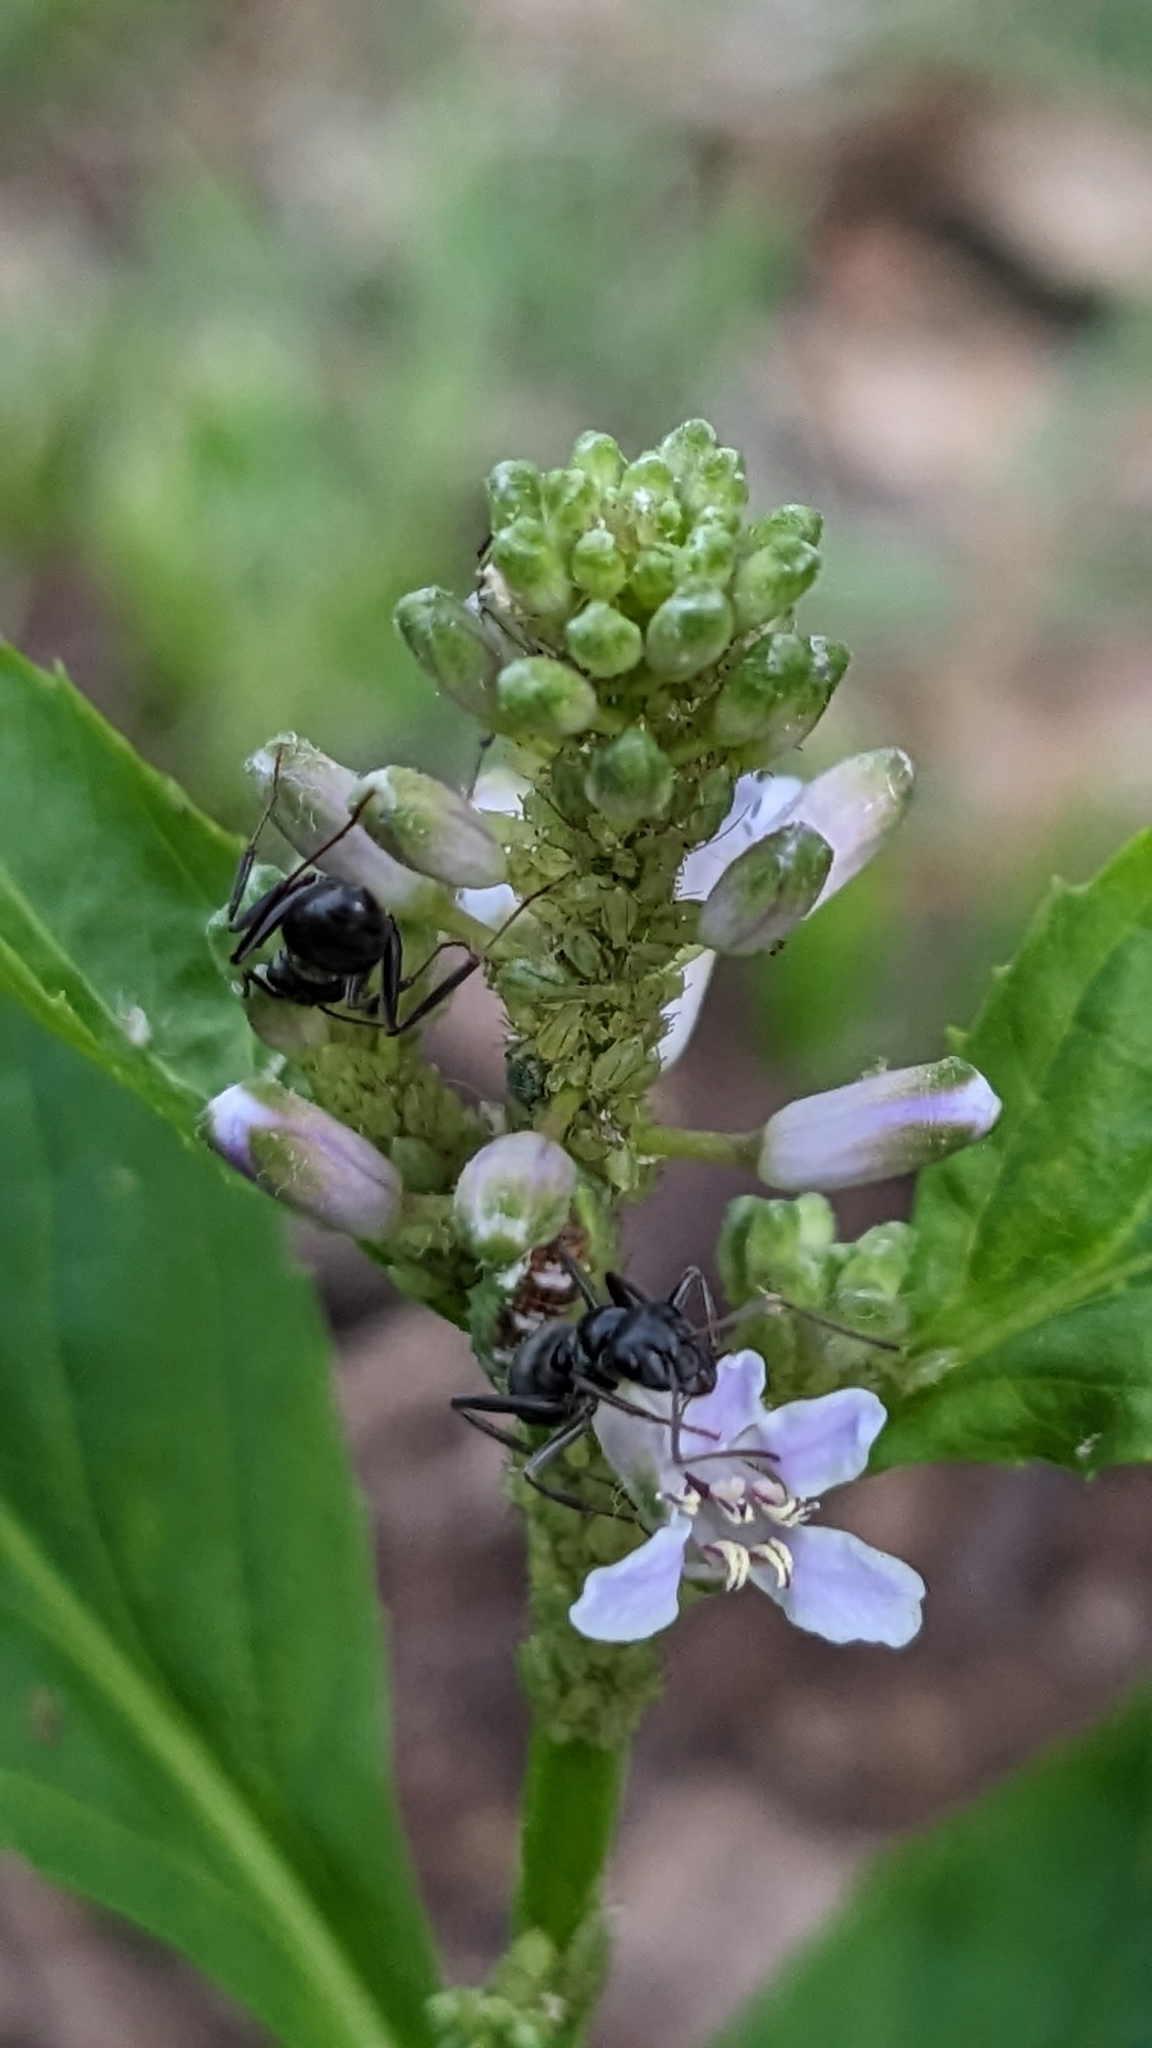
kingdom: Plantae
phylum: Tracheophyta
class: Magnoliopsida
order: Brassicales
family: Brassicaceae
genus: Iodanthus
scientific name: Iodanthus pinnatifidus
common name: Violet rocket
